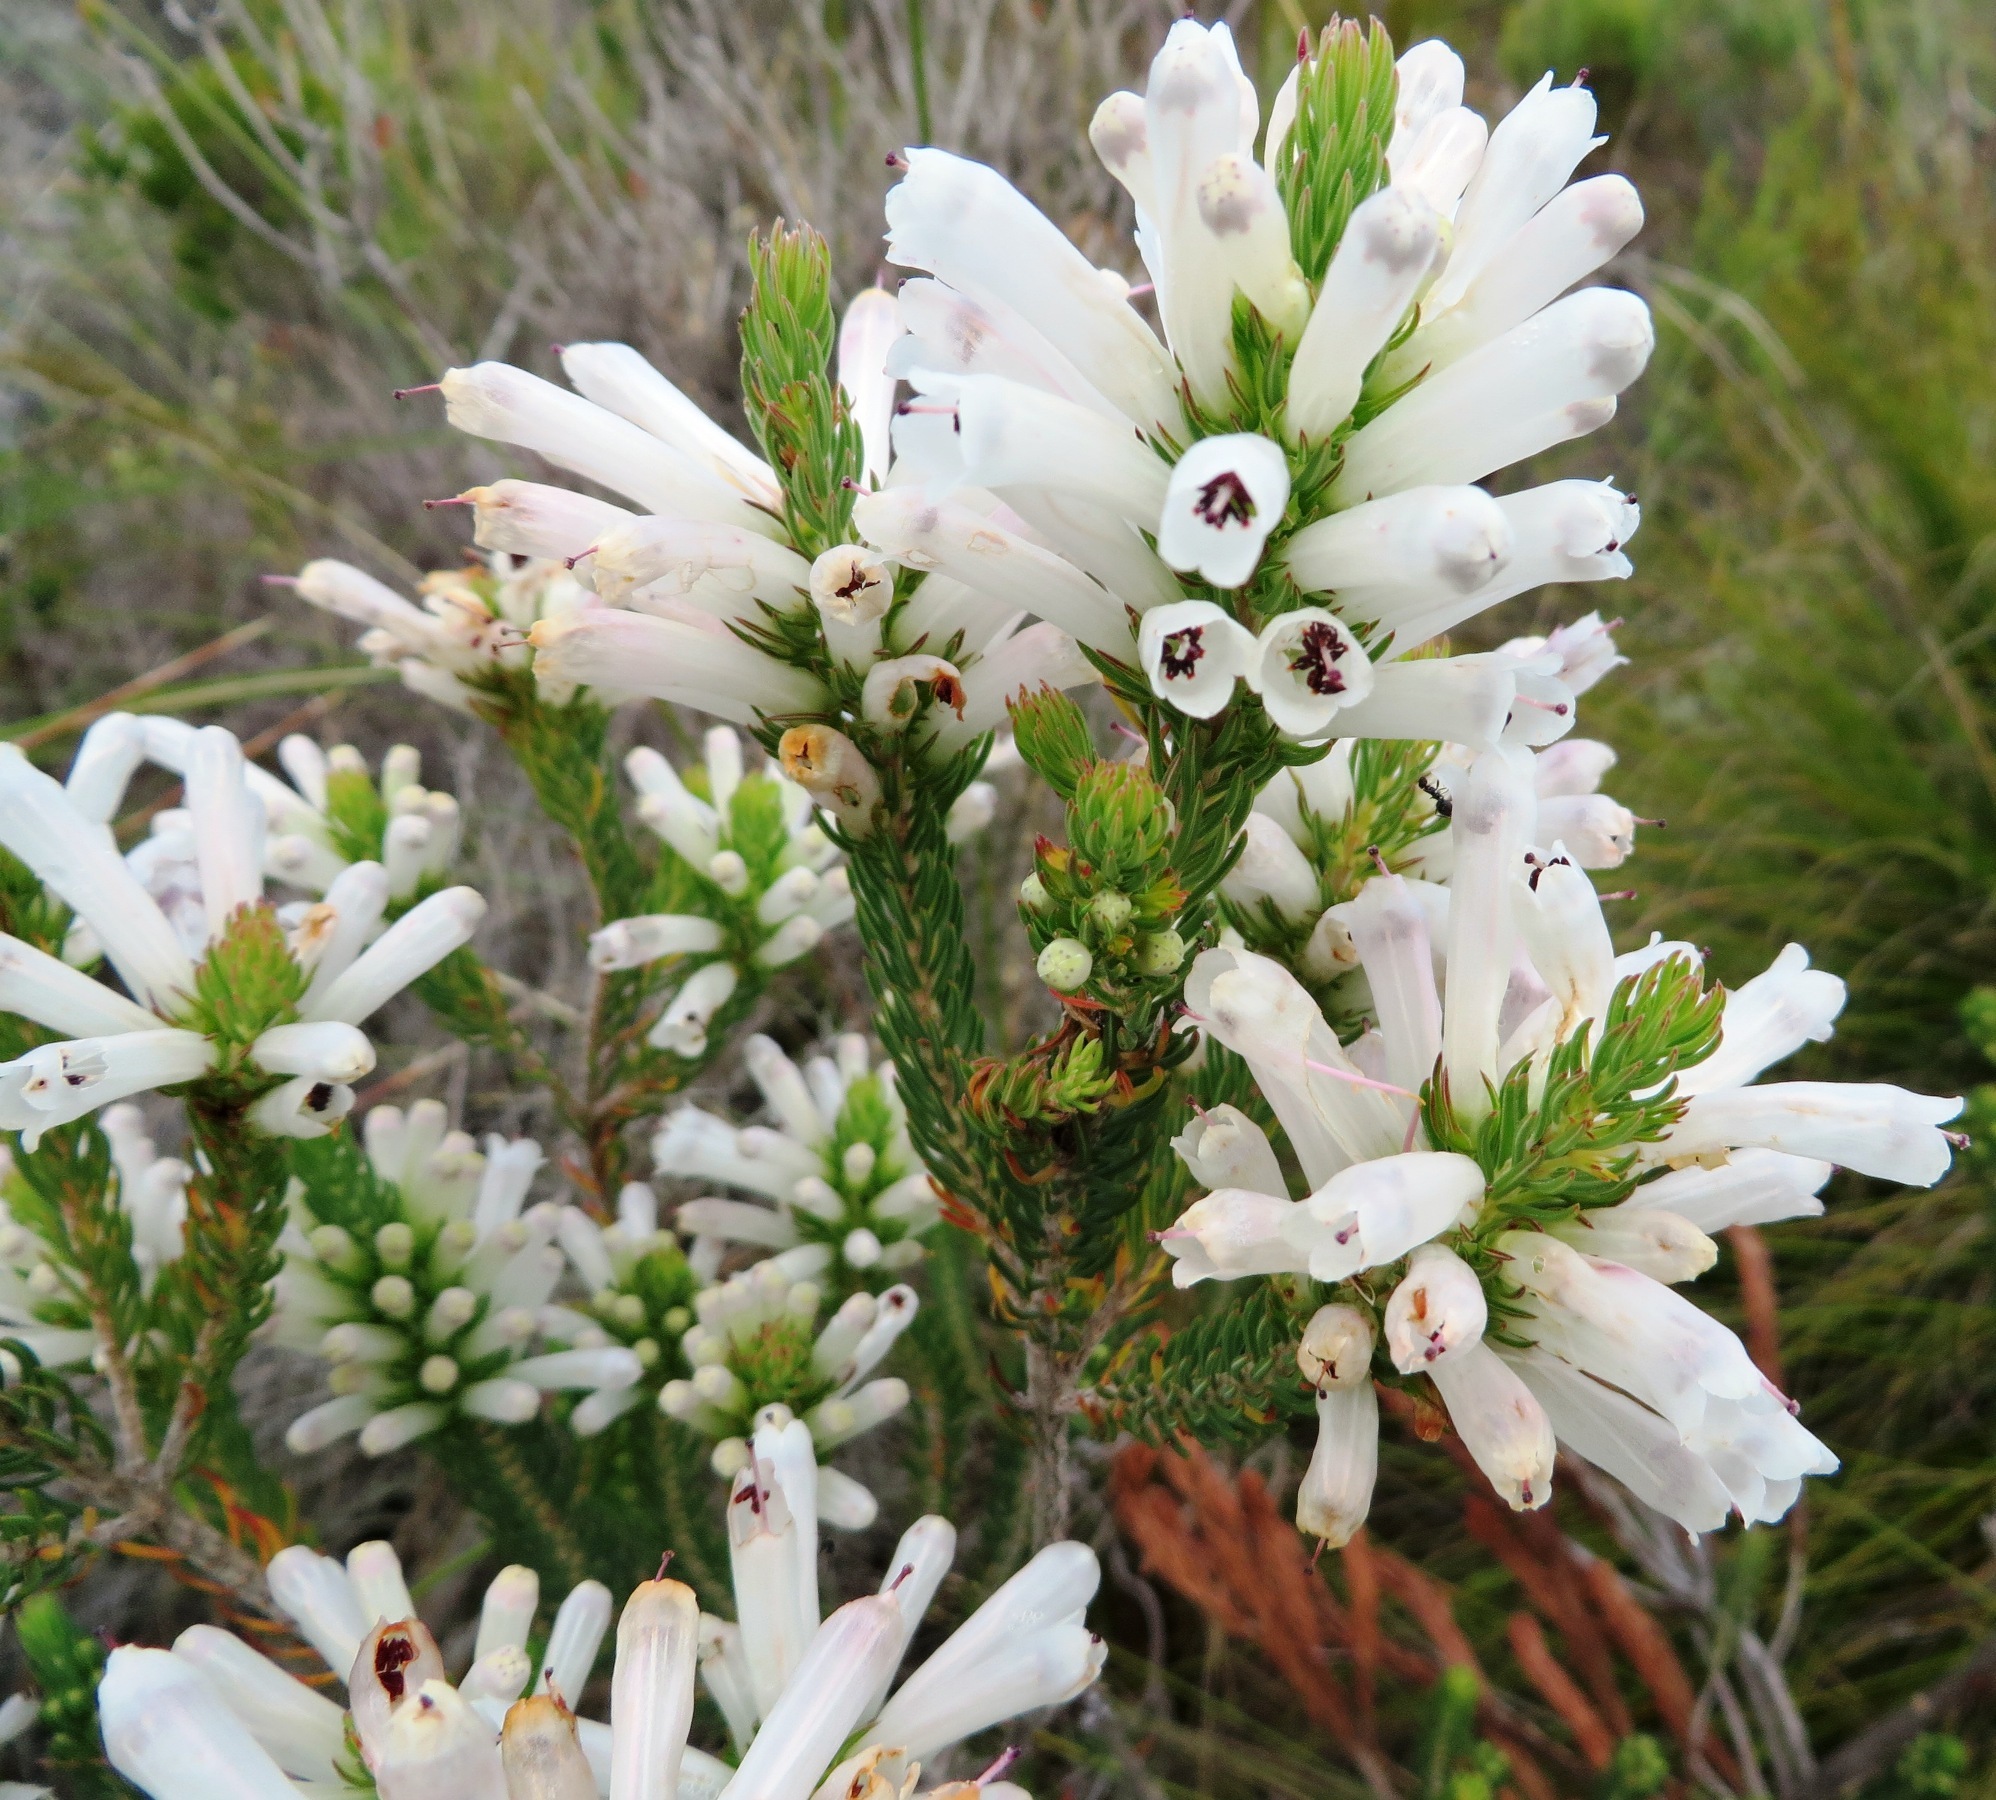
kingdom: Plantae
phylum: Tracheophyta
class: Magnoliopsida
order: Ericales
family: Ericaceae
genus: Erica
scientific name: Erica pinea
